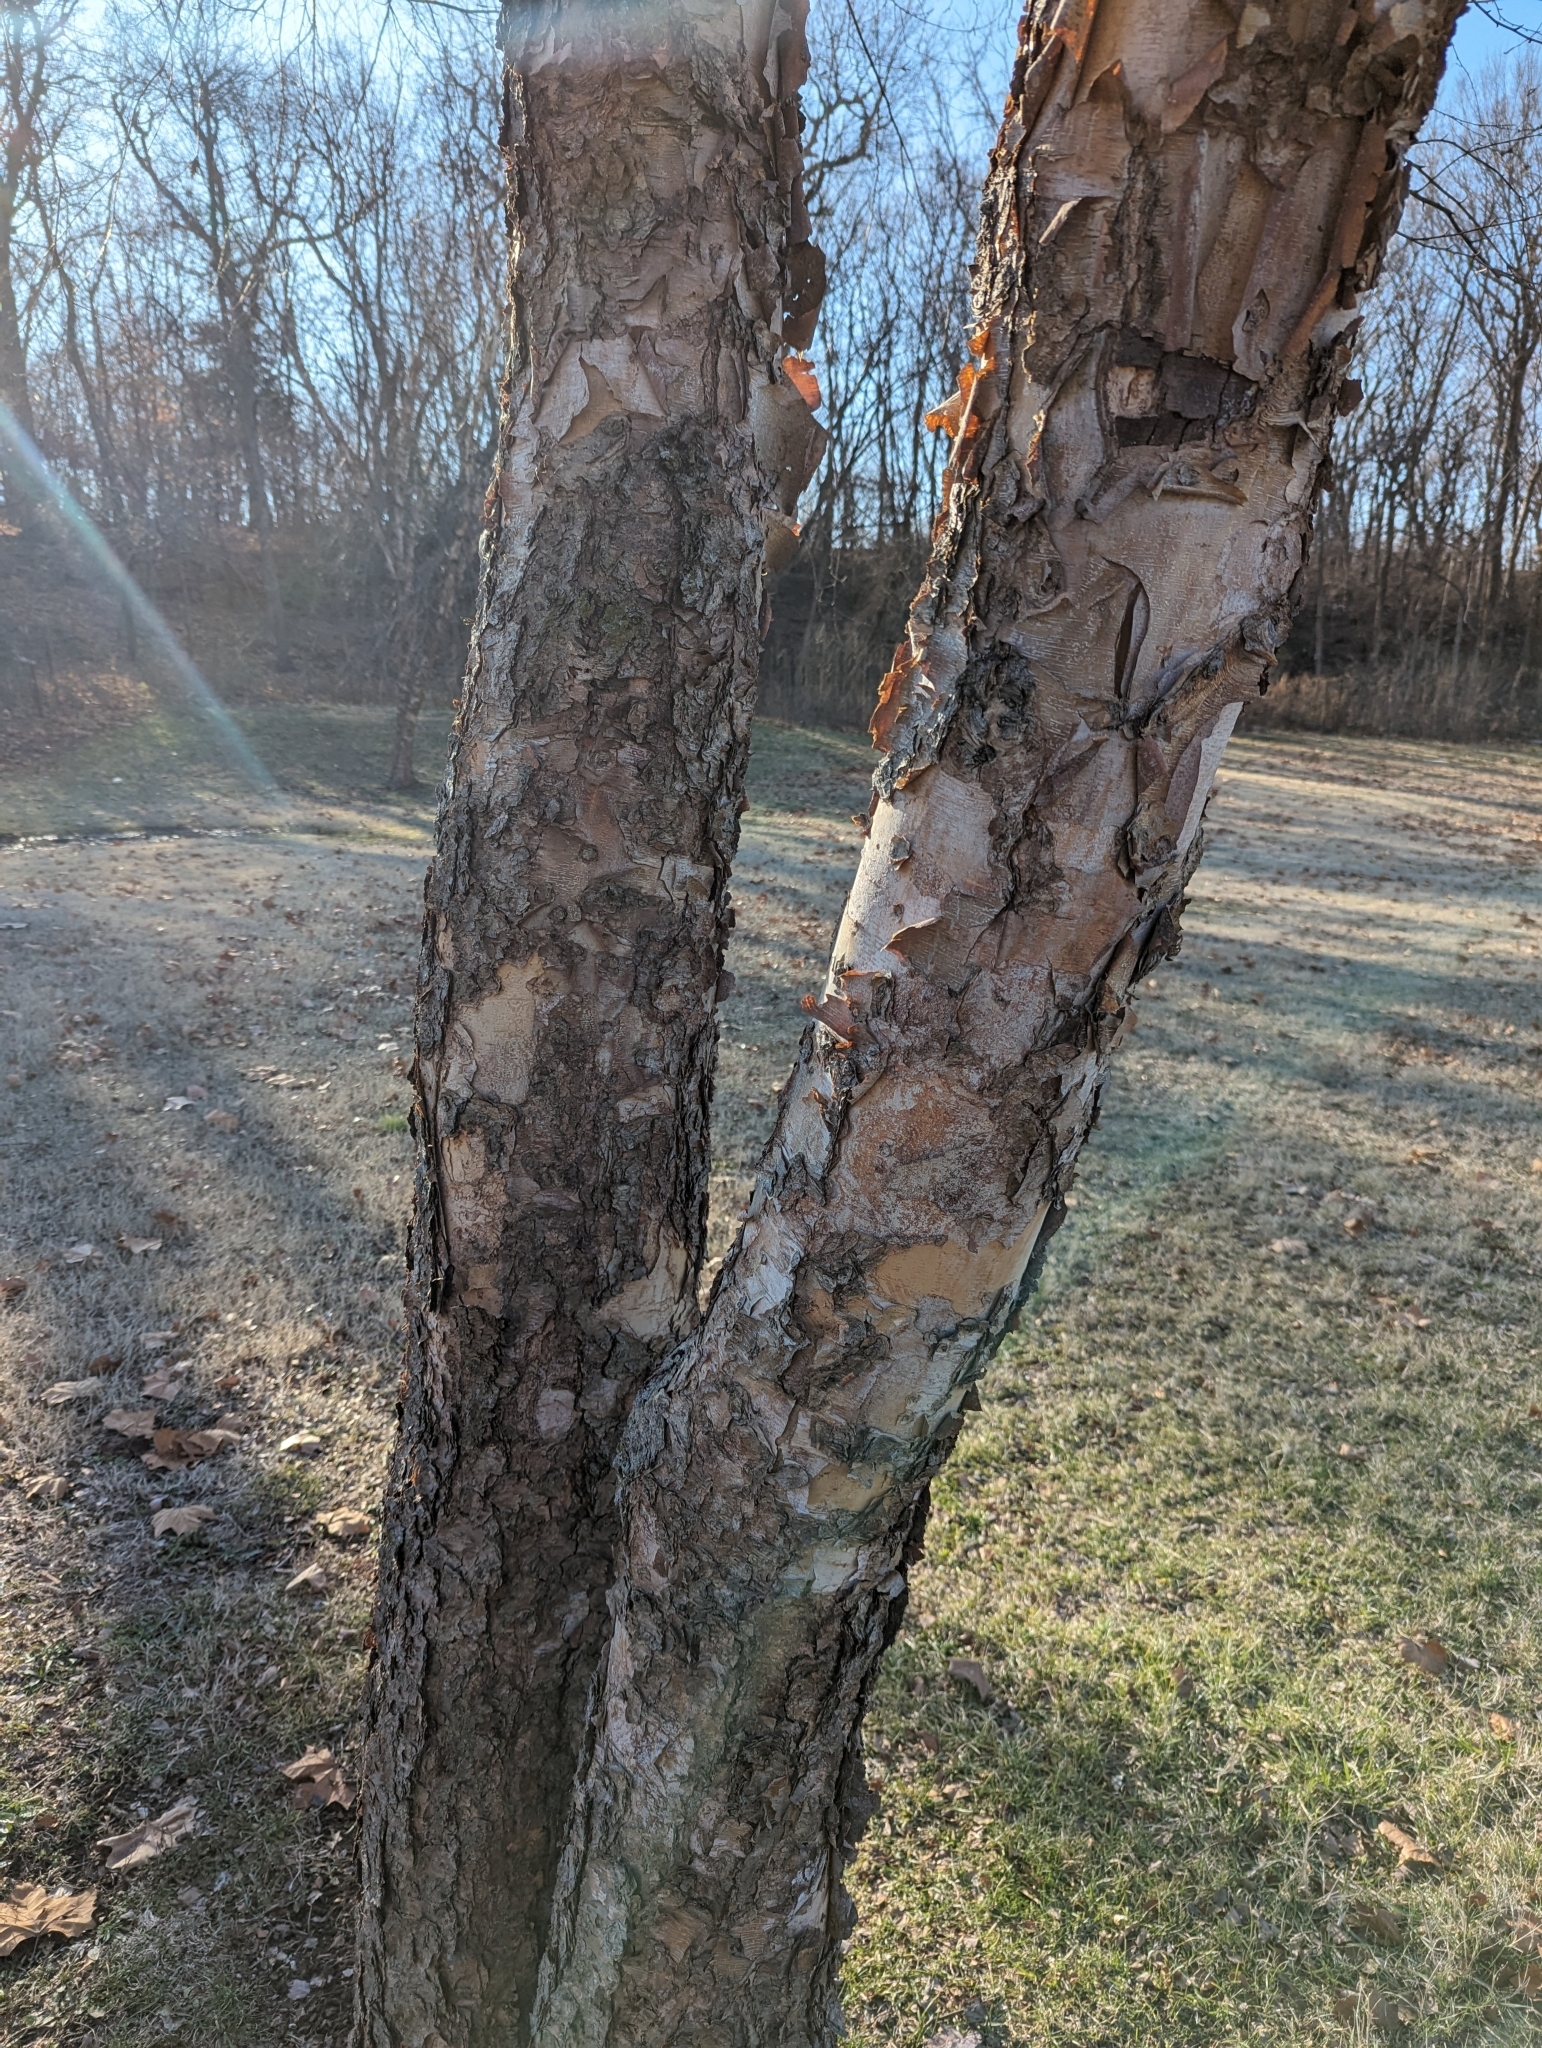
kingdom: Plantae
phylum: Tracheophyta
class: Magnoliopsida
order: Fagales
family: Betulaceae
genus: Betula
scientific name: Betula nigra
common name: Black birch
